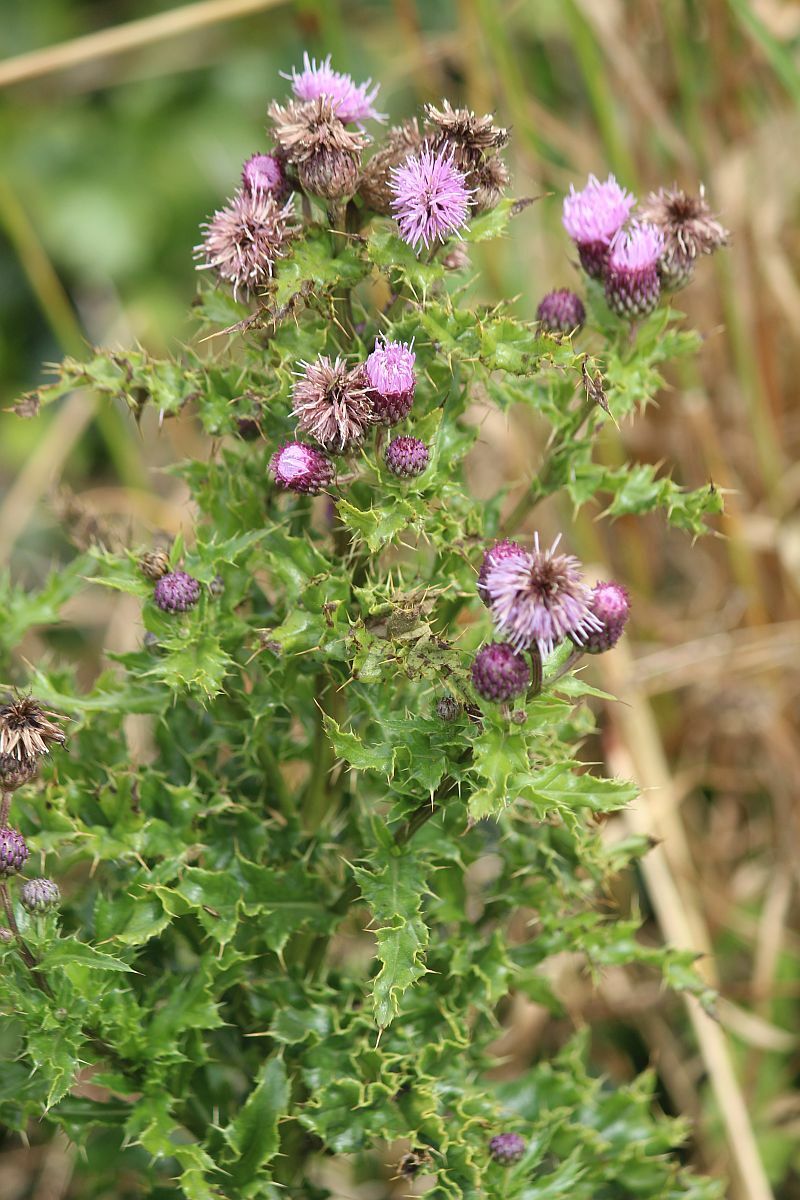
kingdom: Plantae
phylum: Tracheophyta
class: Magnoliopsida
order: Asterales
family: Asteraceae
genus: Cirsium
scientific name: Cirsium arvense
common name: Creeping thistle
